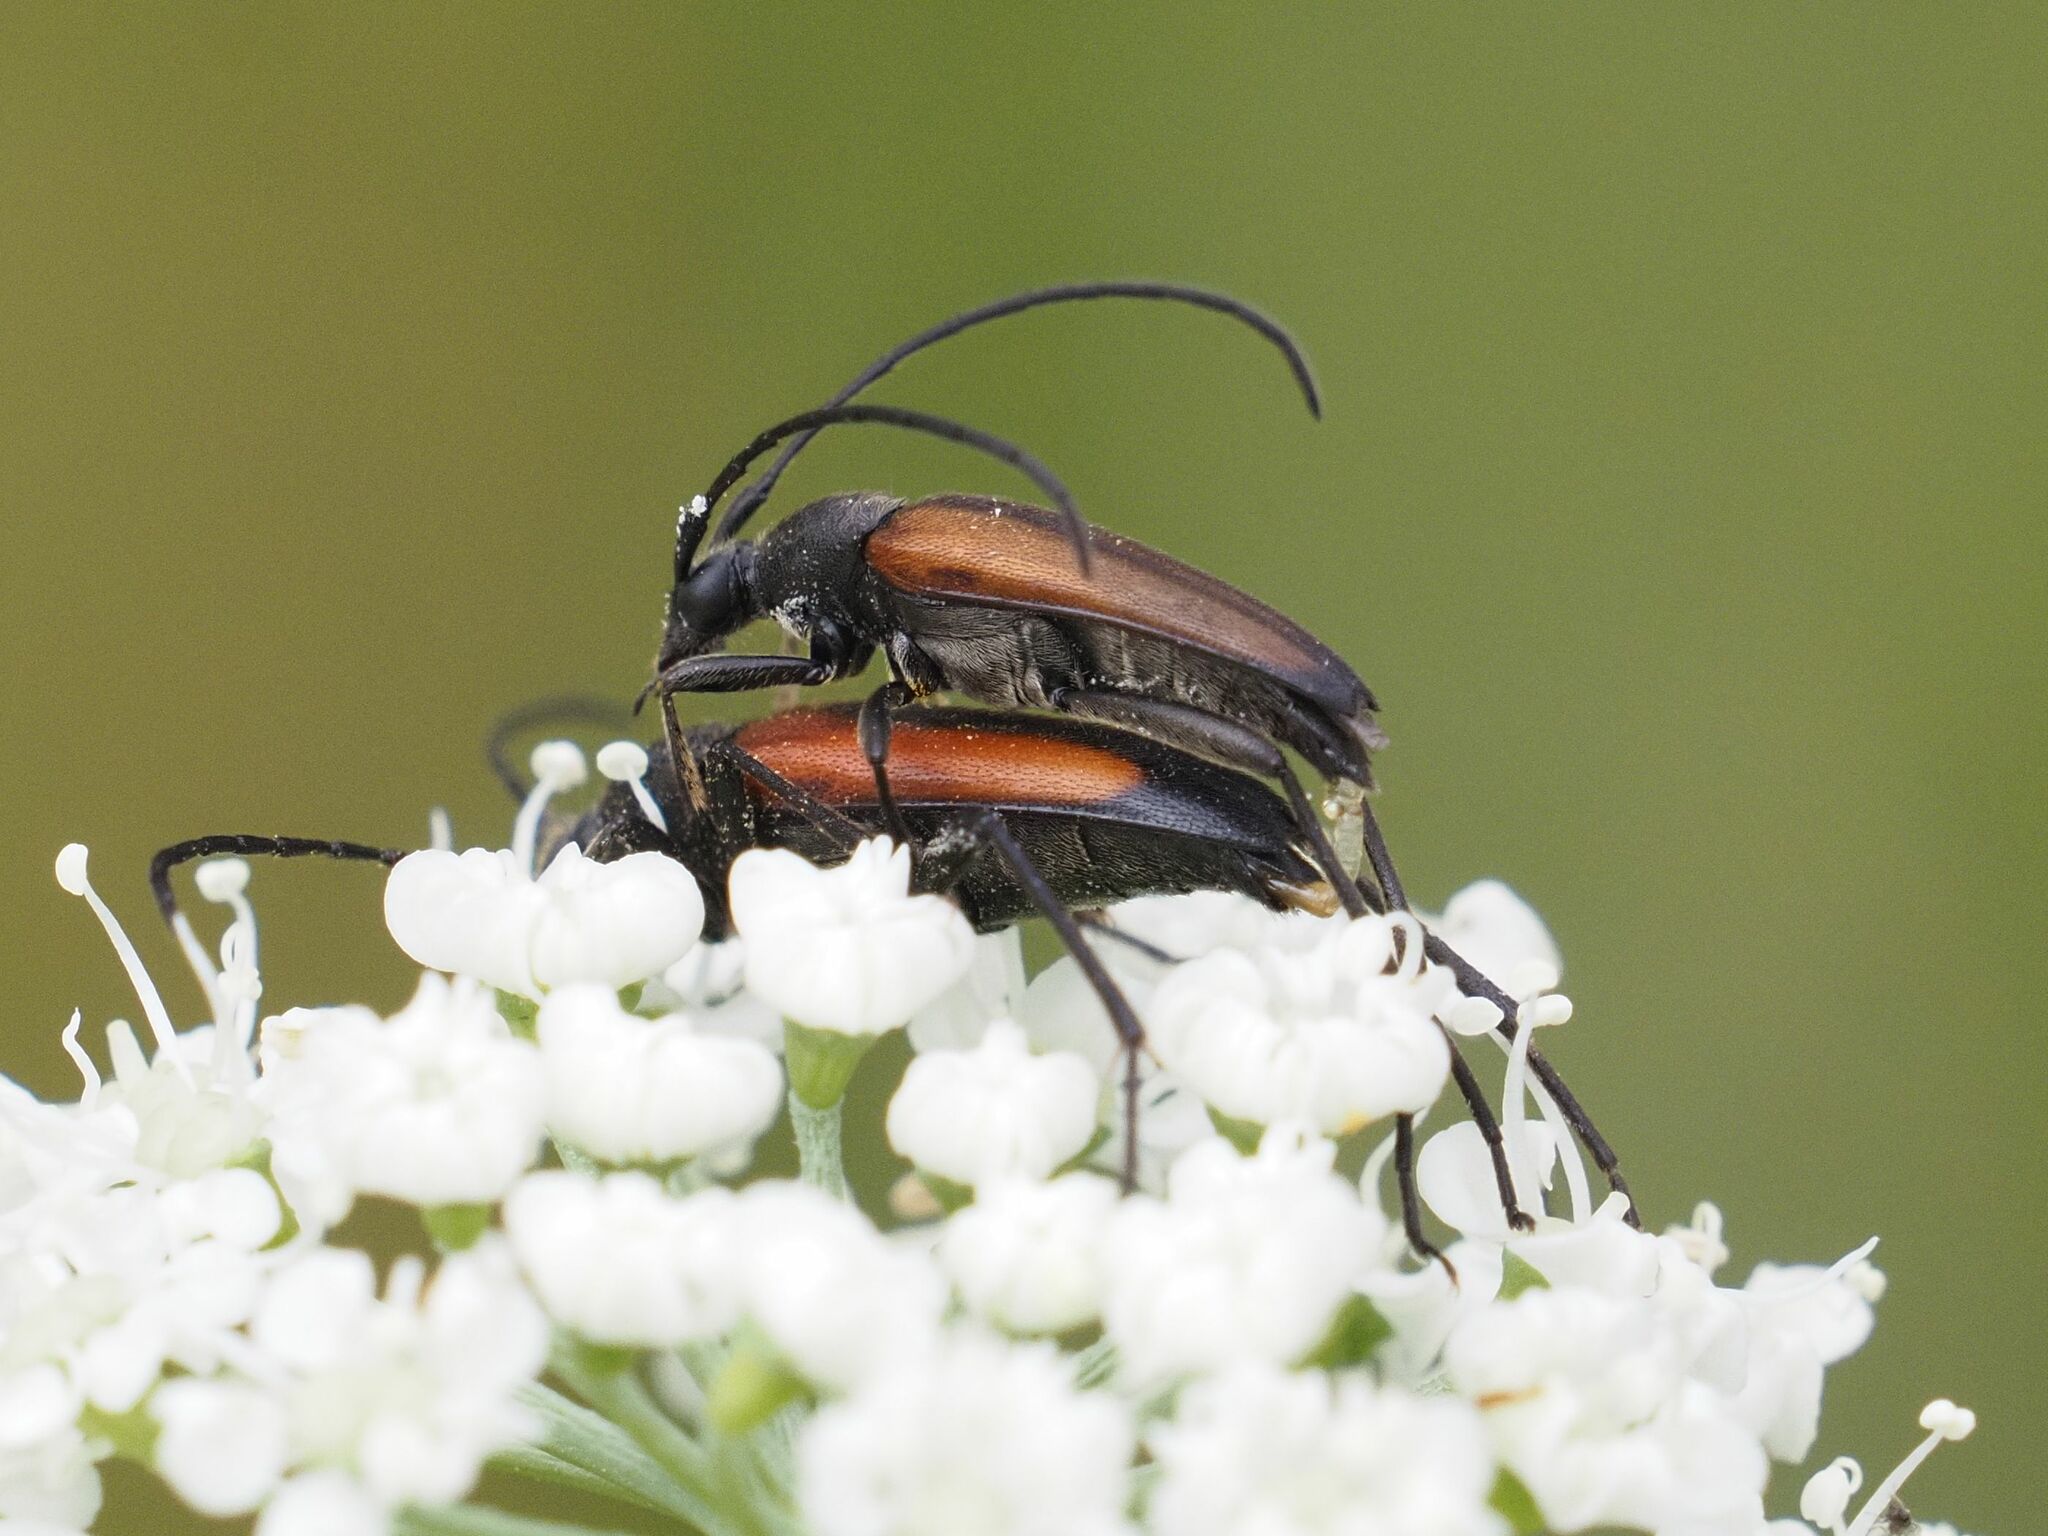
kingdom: Animalia
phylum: Arthropoda
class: Insecta
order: Coleoptera
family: Cerambycidae
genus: Stenurella
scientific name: Stenurella melanura
